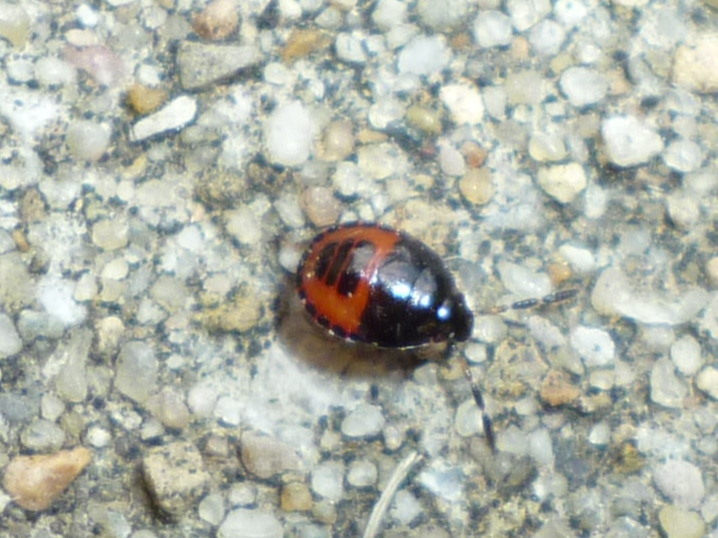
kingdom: Animalia
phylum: Arthropoda
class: Insecta
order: Hemiptera
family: Cydnidae
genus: Sehirus
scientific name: Sehirus cinctus
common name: White-margined burrower bug
